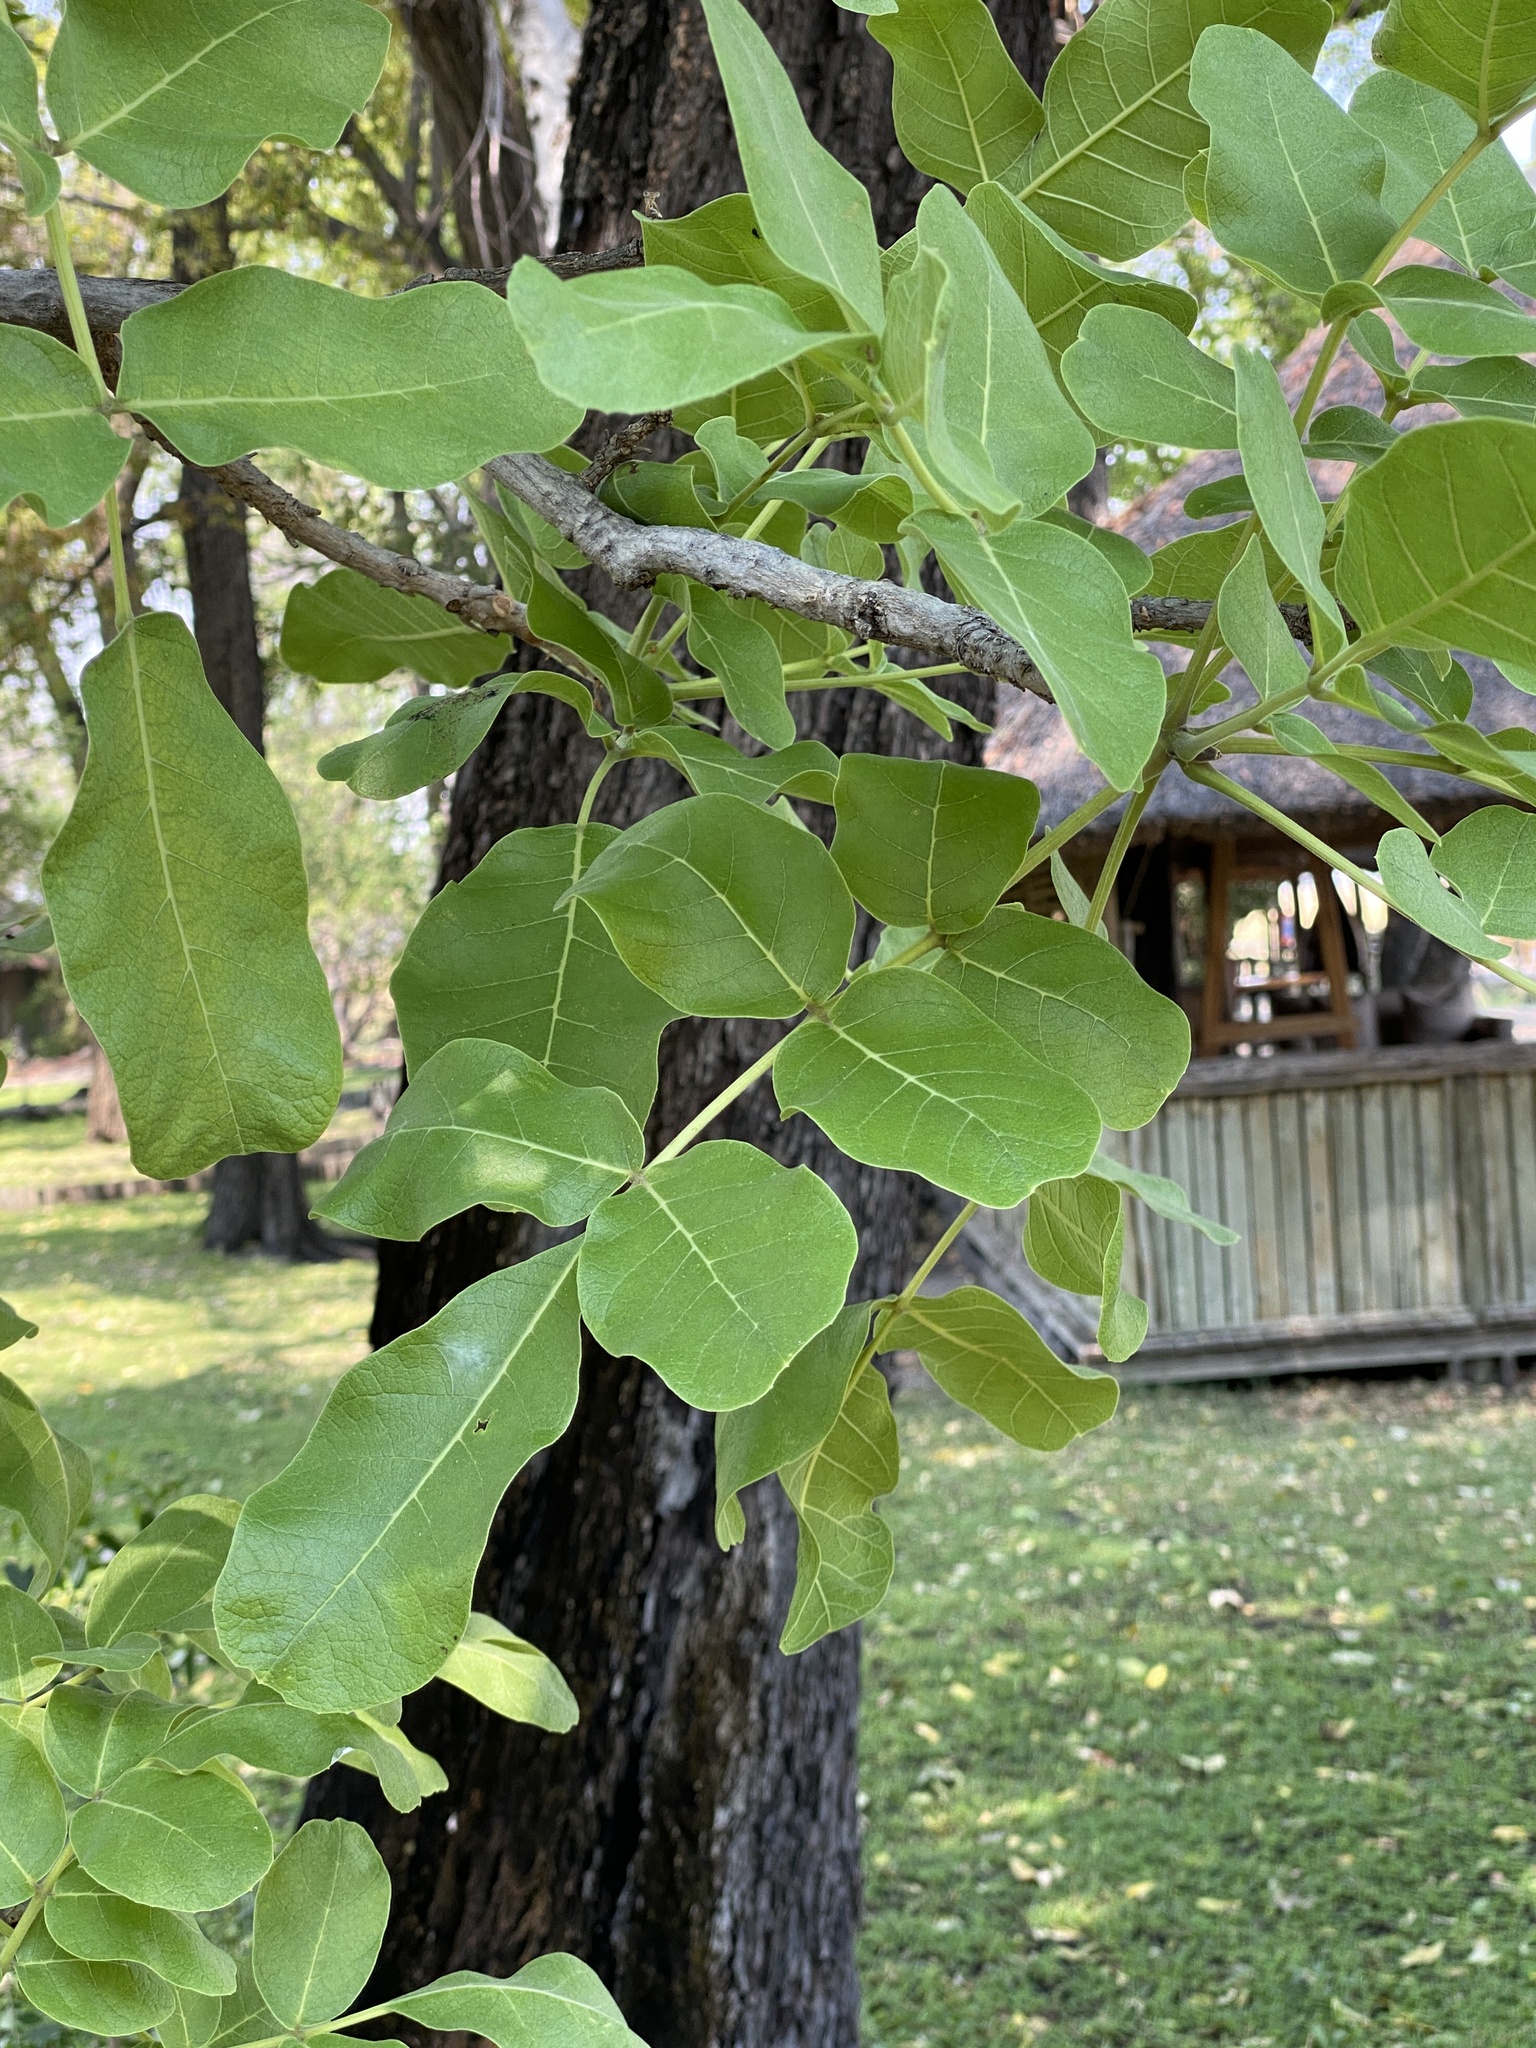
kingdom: Plantae
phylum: Tracheophyta
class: Magnoliopsida
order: Lamiales
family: Bignoniaceae
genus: Kigelia
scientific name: Kigelia africana
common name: Sausage tree
